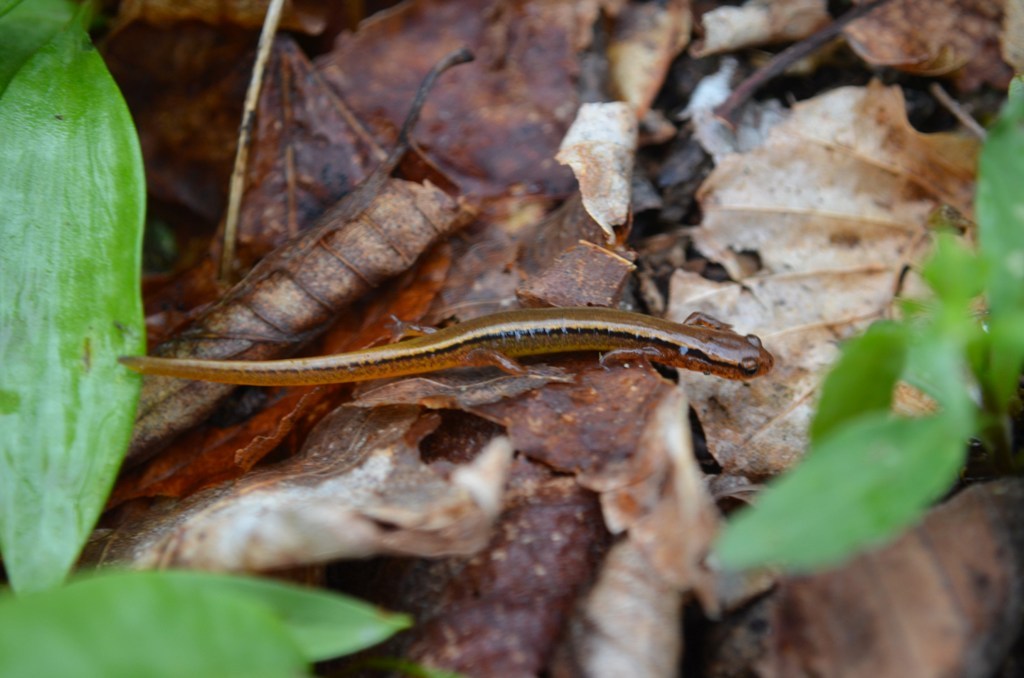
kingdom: Animalia
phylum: Chordata
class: Amphibia
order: Caudata
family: Plethodontidae
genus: Eurycea
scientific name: Eurycea wilderae
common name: Blue ridge two-lined salamander
